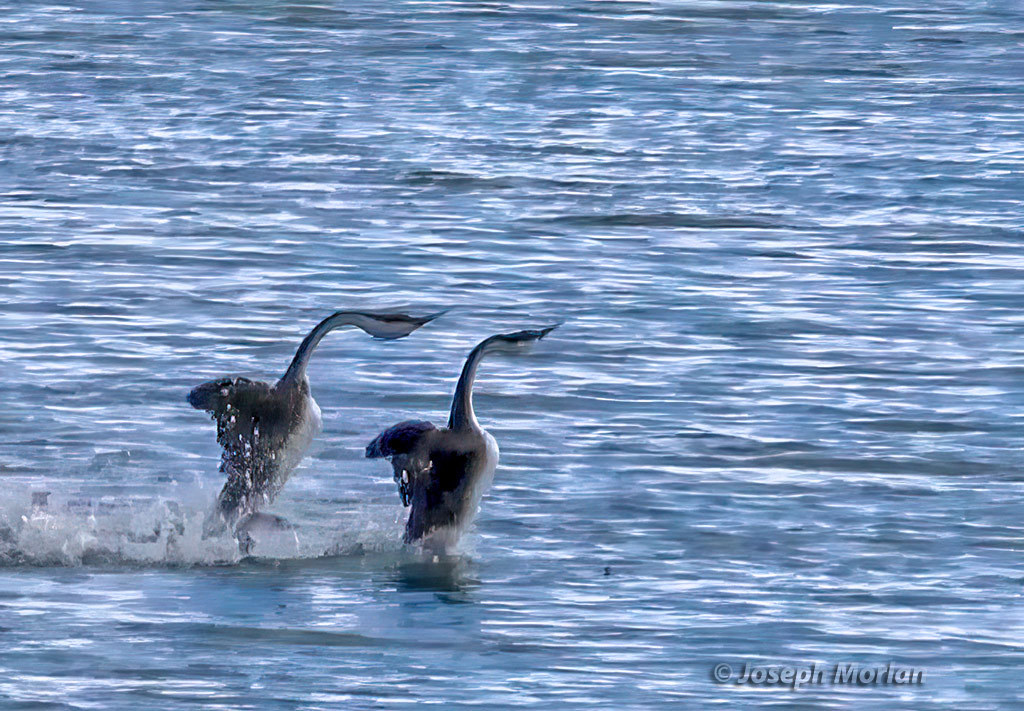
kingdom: Animalia
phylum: Chordata
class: Aves
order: Podicipediformes
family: Podicipedidae
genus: Aechmophorus
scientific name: Aechmophorus occidentalis
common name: Western grebe
